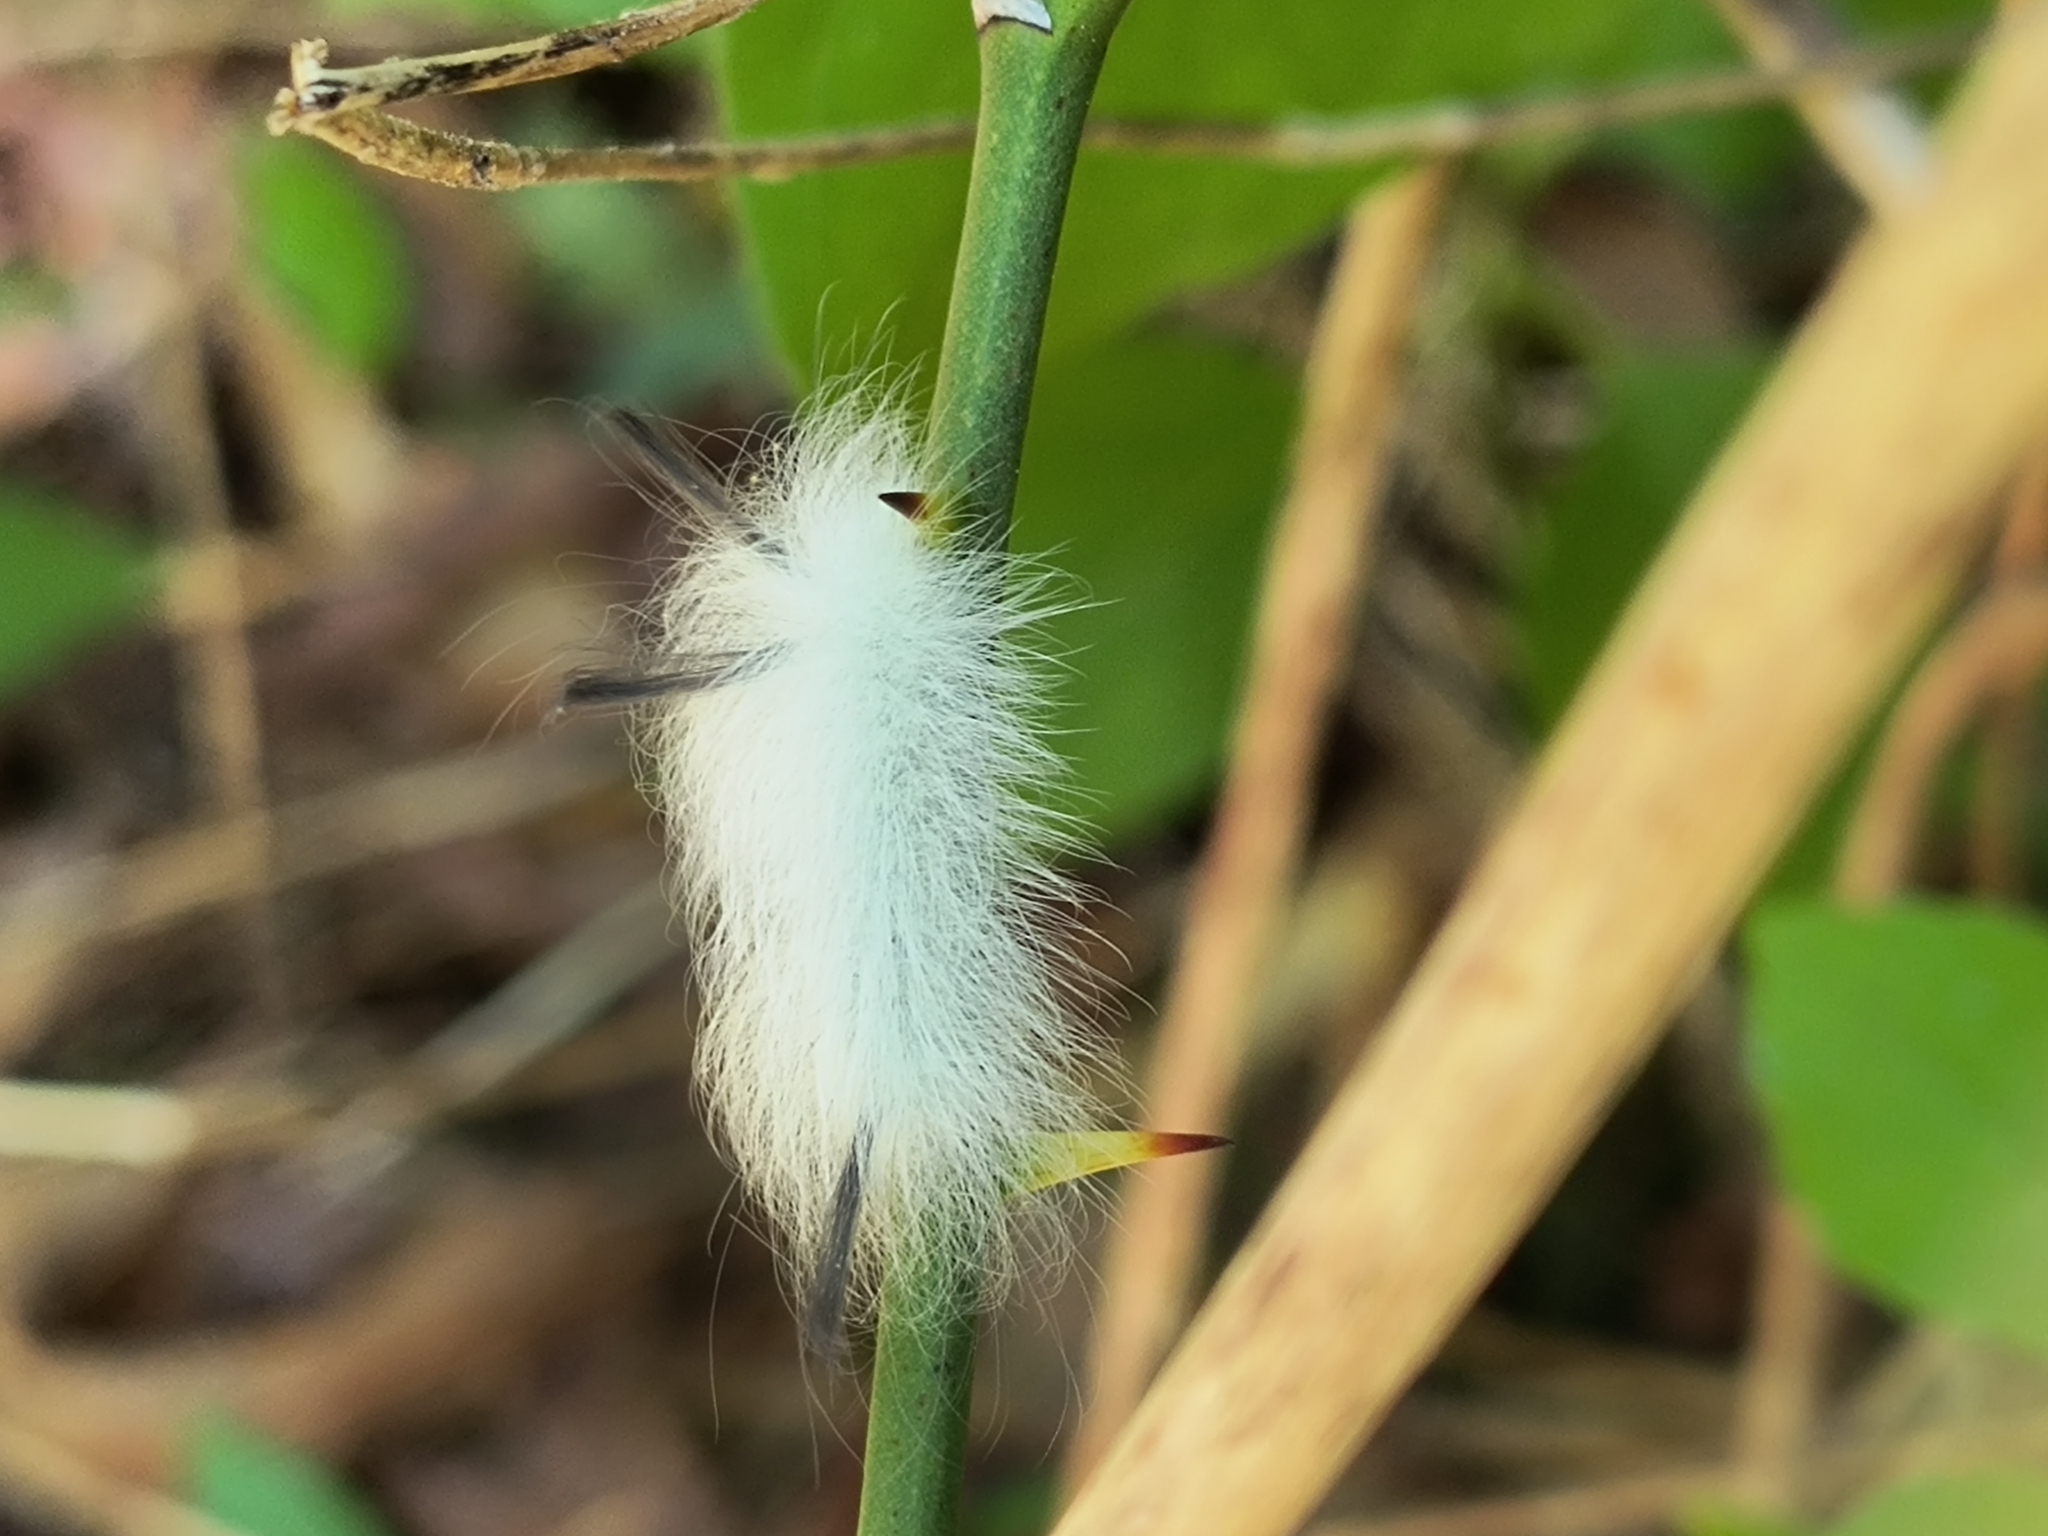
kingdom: Animalia
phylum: Arthropoda
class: Insecta
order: Lepidoptera
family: Apatelodidae
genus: Hygrochroa
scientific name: Hygrochroa Apatelodes torrefacta
